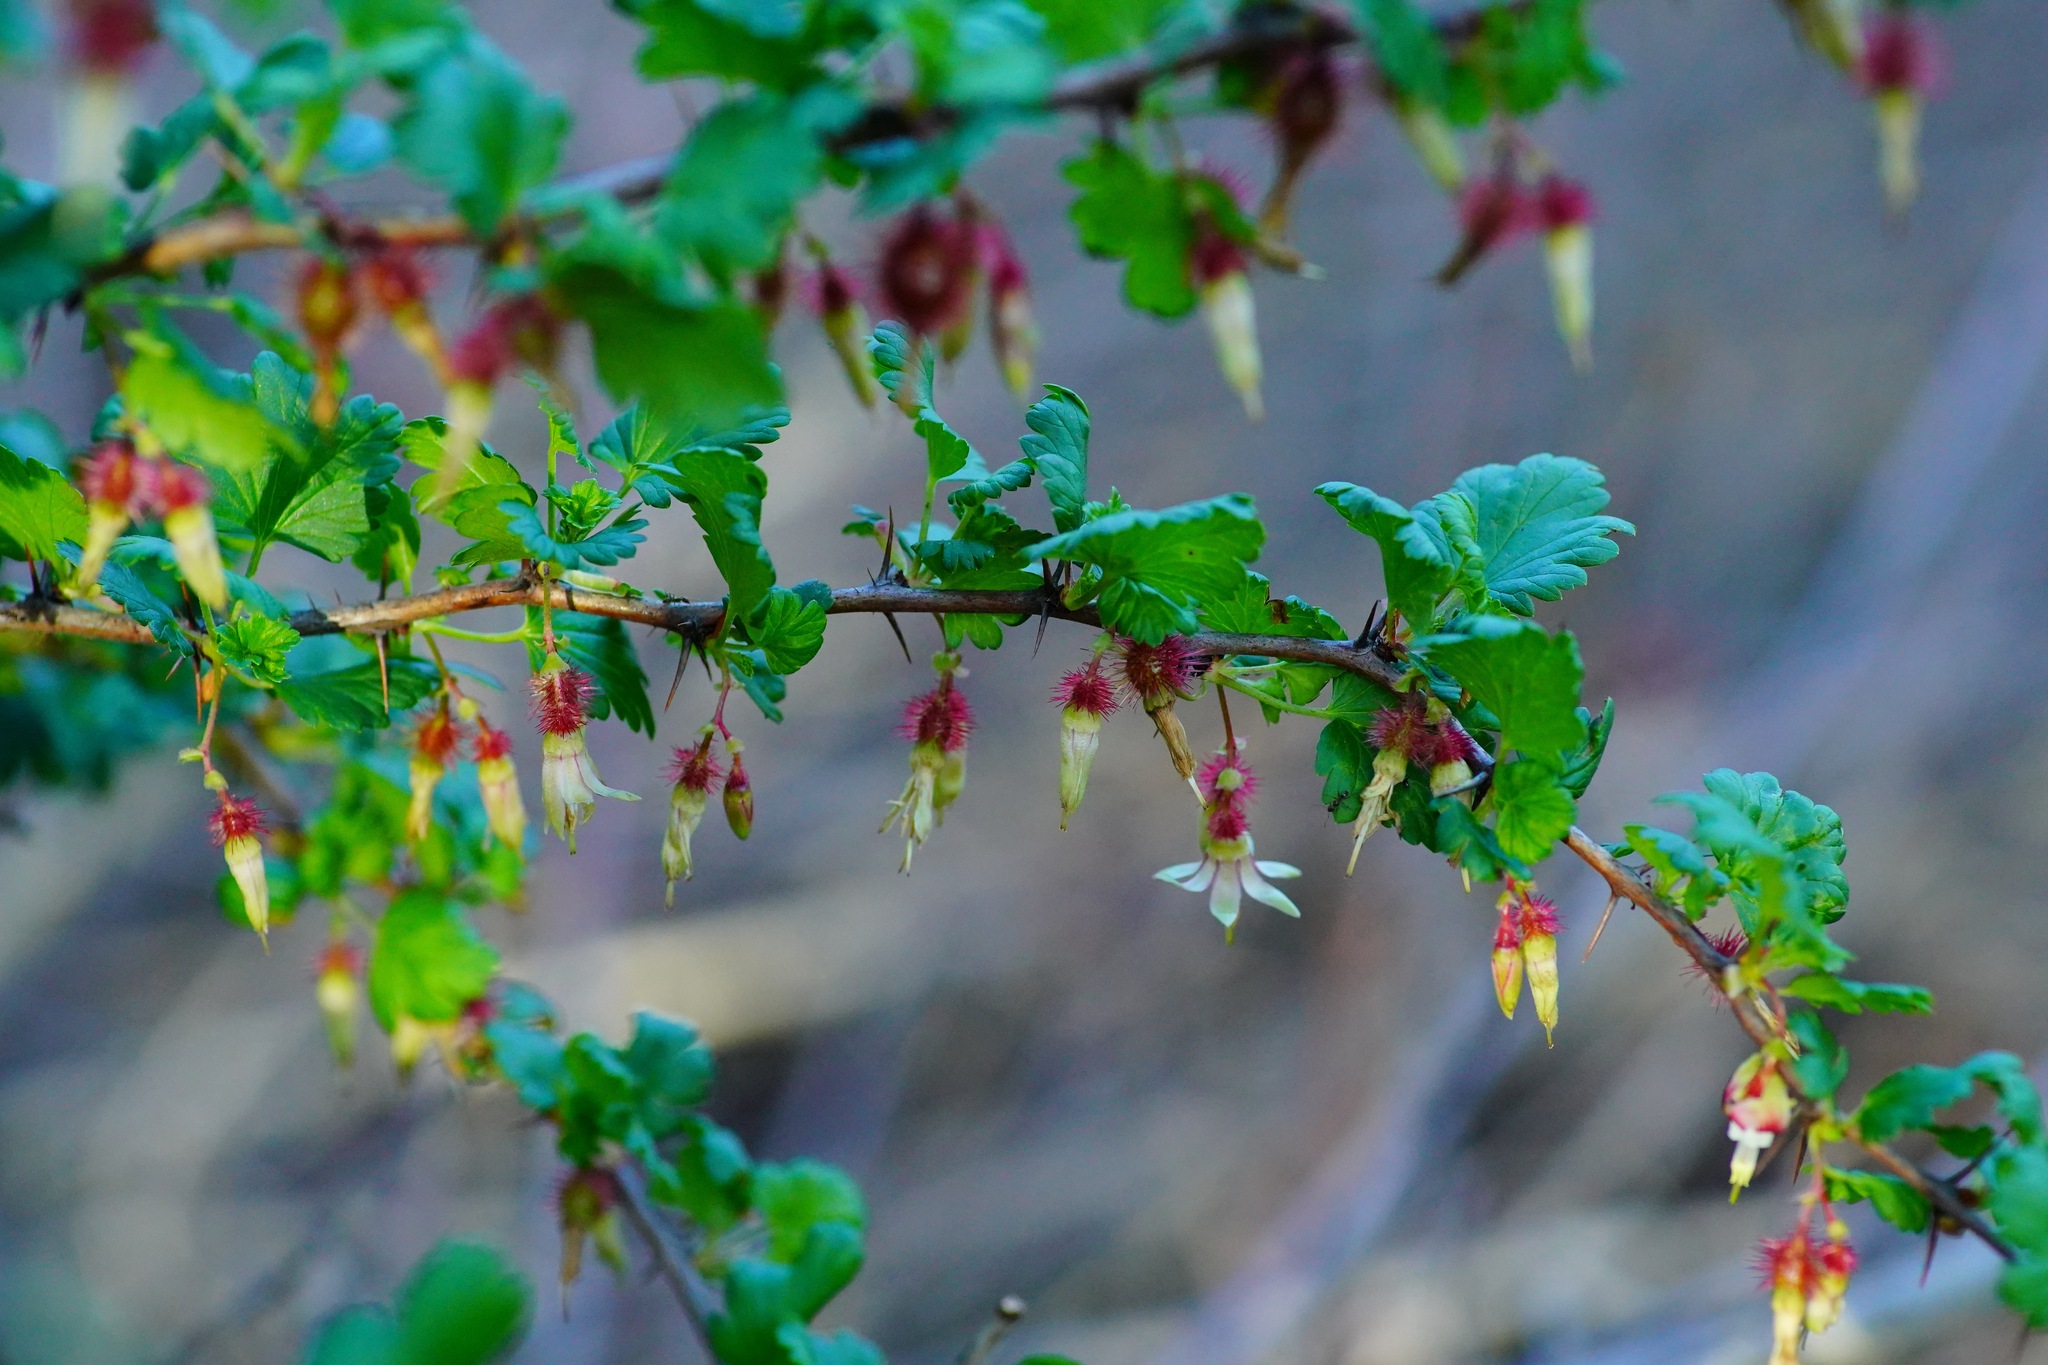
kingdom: Plantae
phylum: Tracheophyta
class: Magnoliopsida
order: Saxifragales
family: Grossulariaceae
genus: Ribes
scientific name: Ribes californicum
